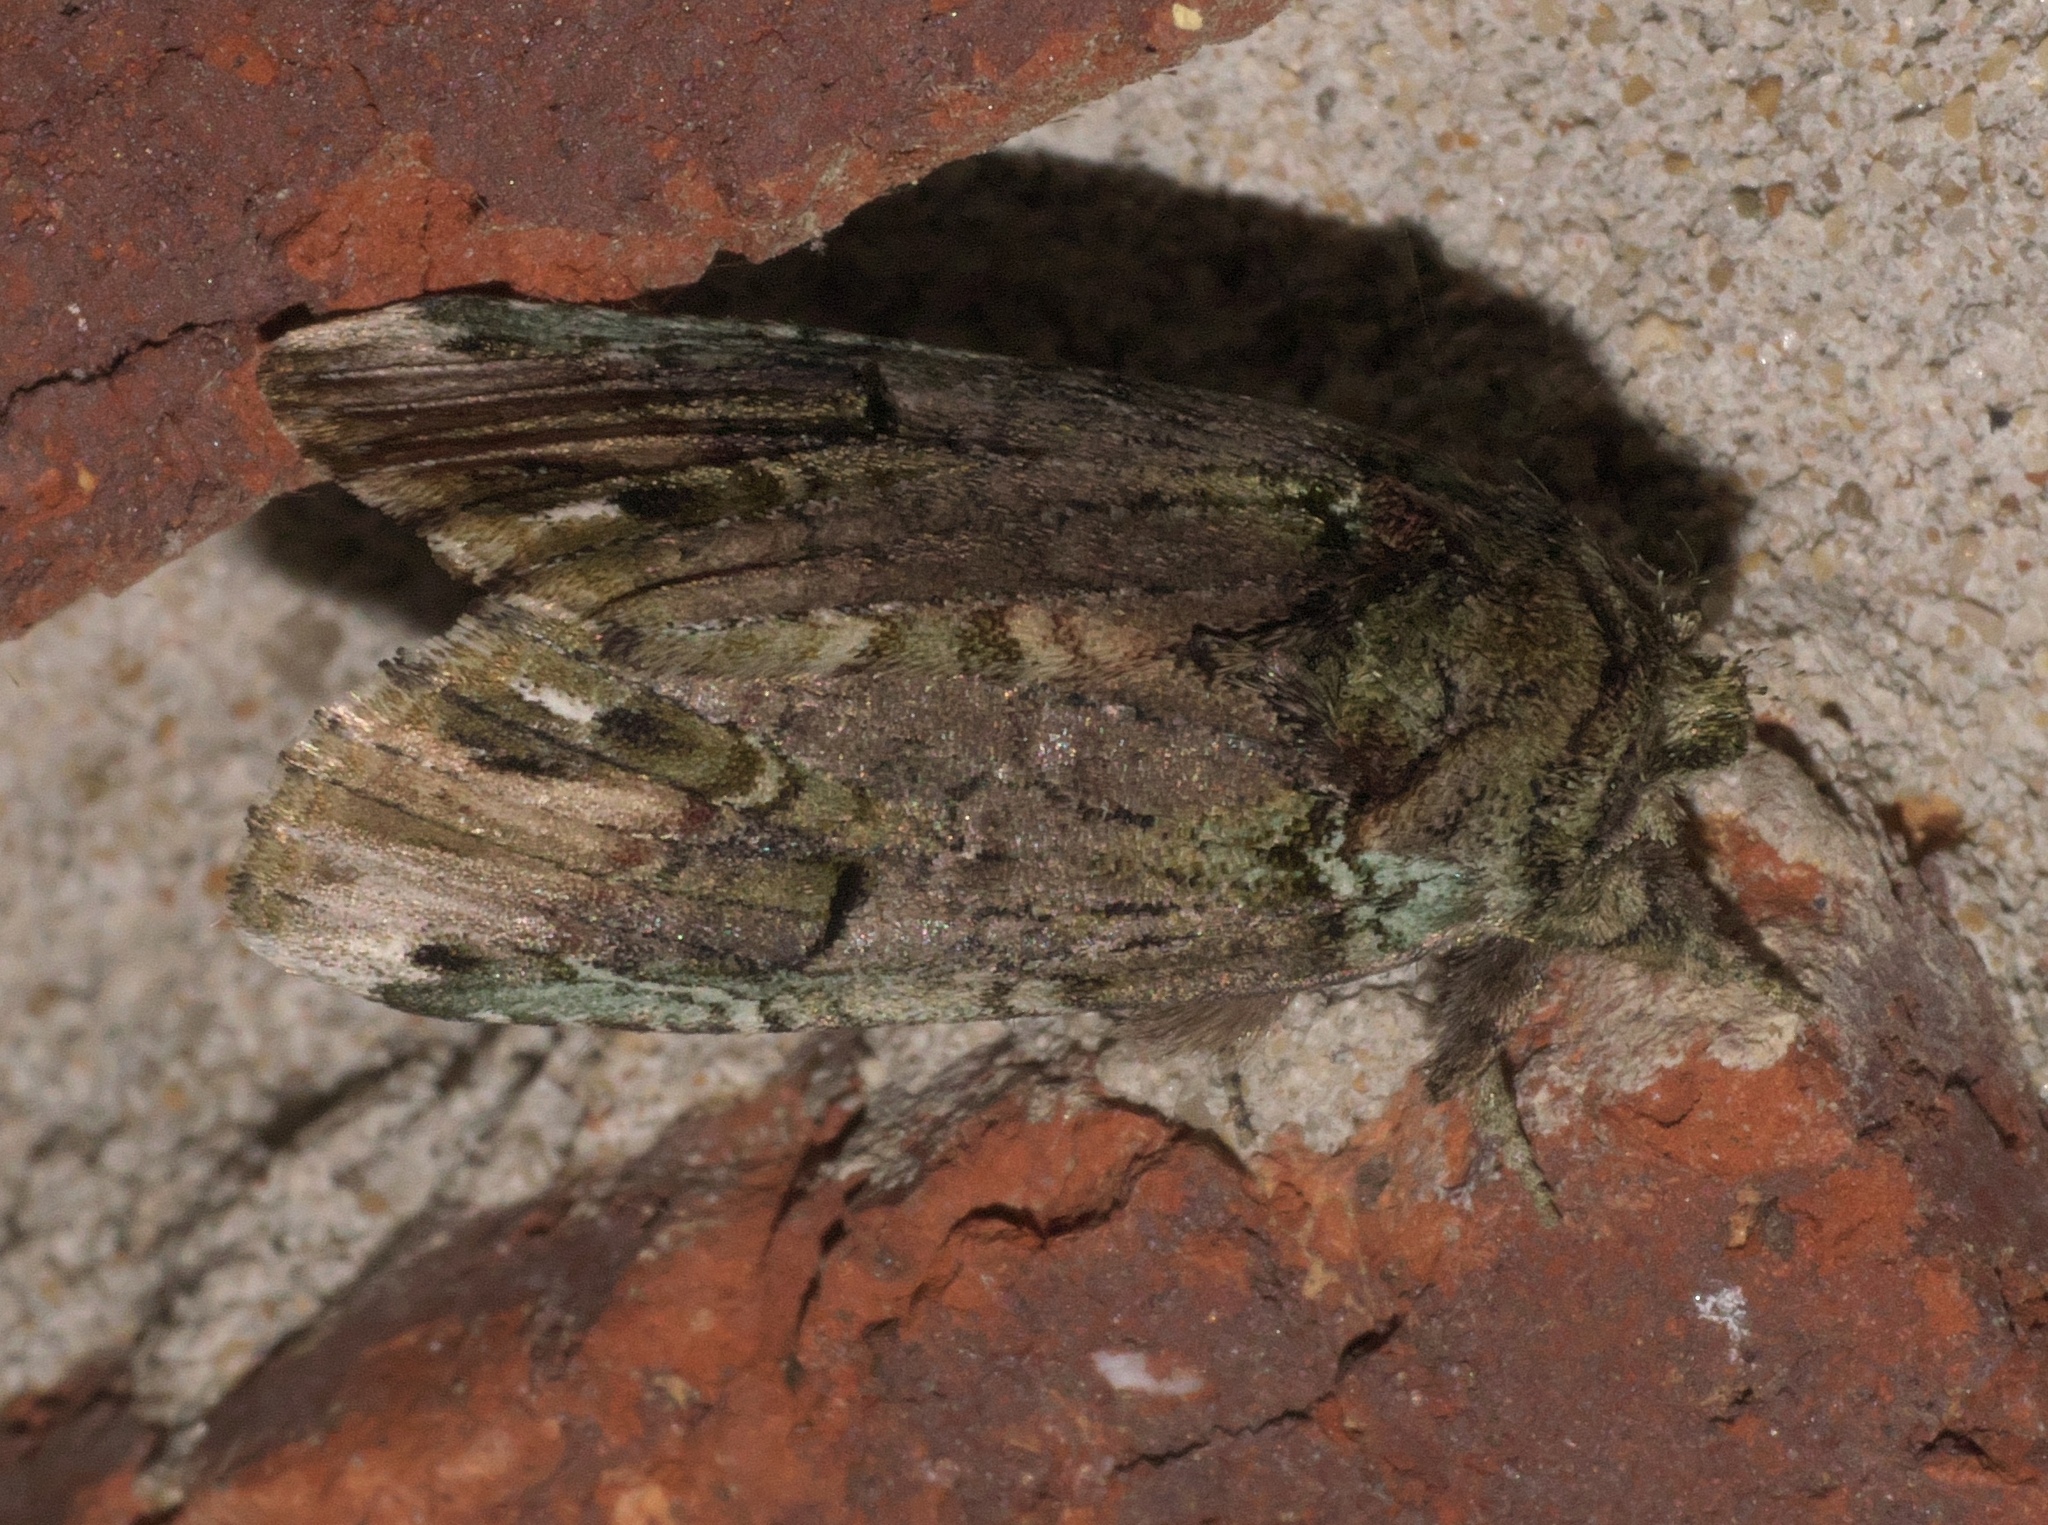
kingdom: Animalia
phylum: Arthropoda
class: Insecta
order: Lepidoptera
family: Notodontidae
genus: Schizura
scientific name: Schizura
